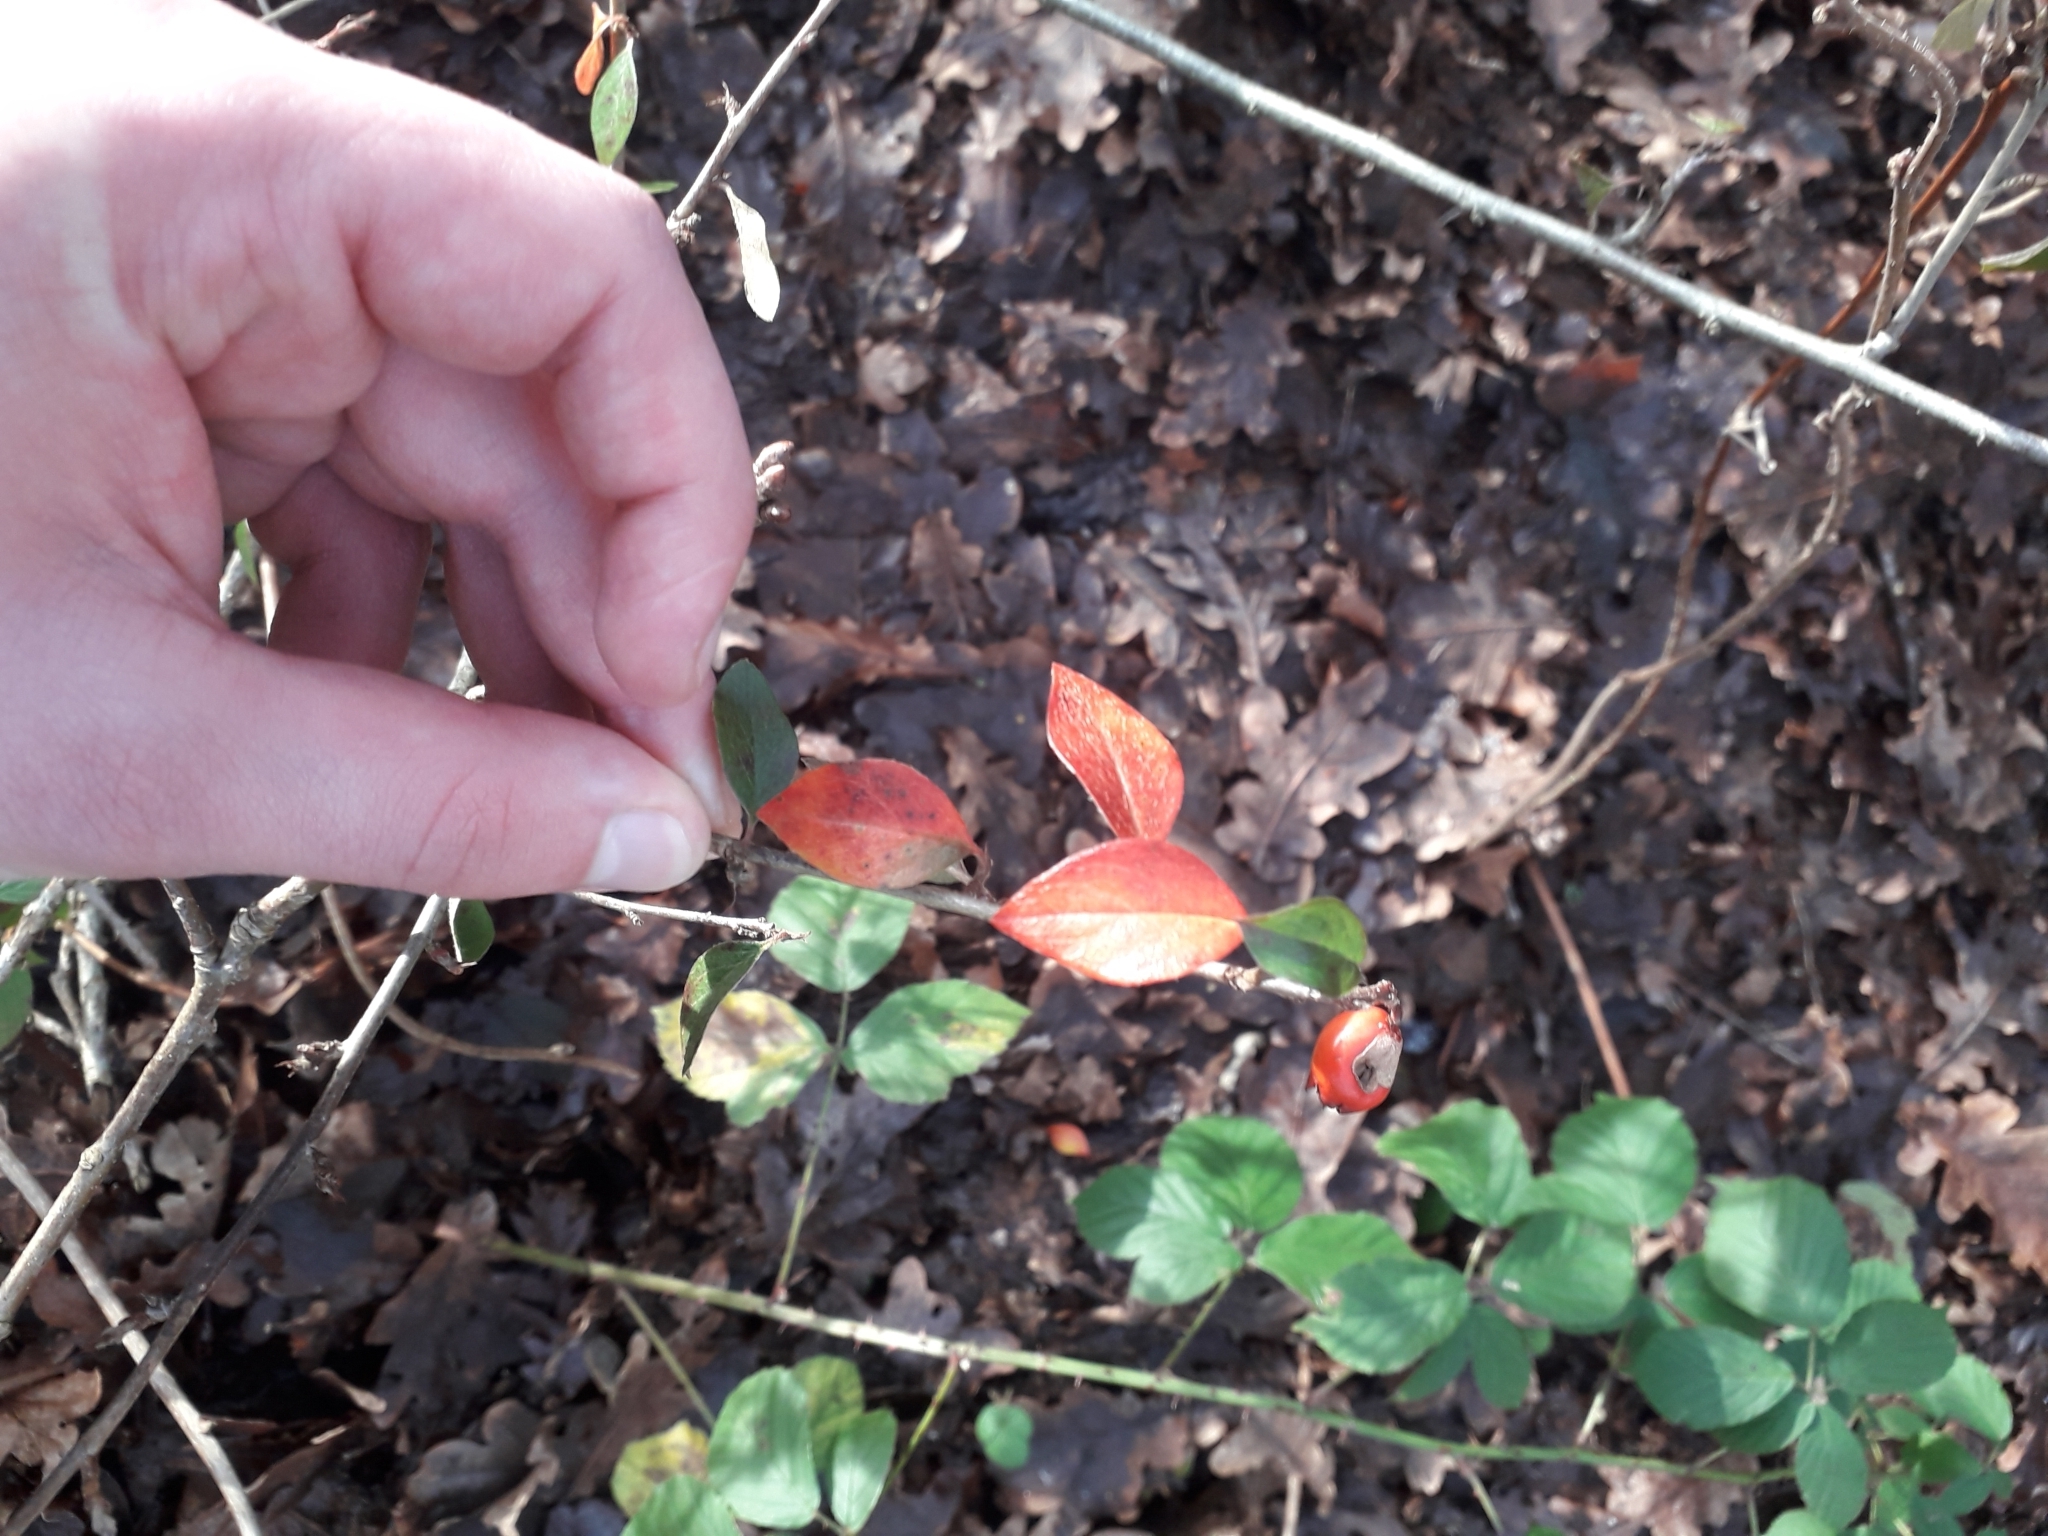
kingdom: Plantae
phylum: Tracheophyta
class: Magnoliopsida
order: Rosales
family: Rosaceae
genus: Cotoneaster
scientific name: Cotoneaster simonsii
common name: Himalayan cotoneaster
